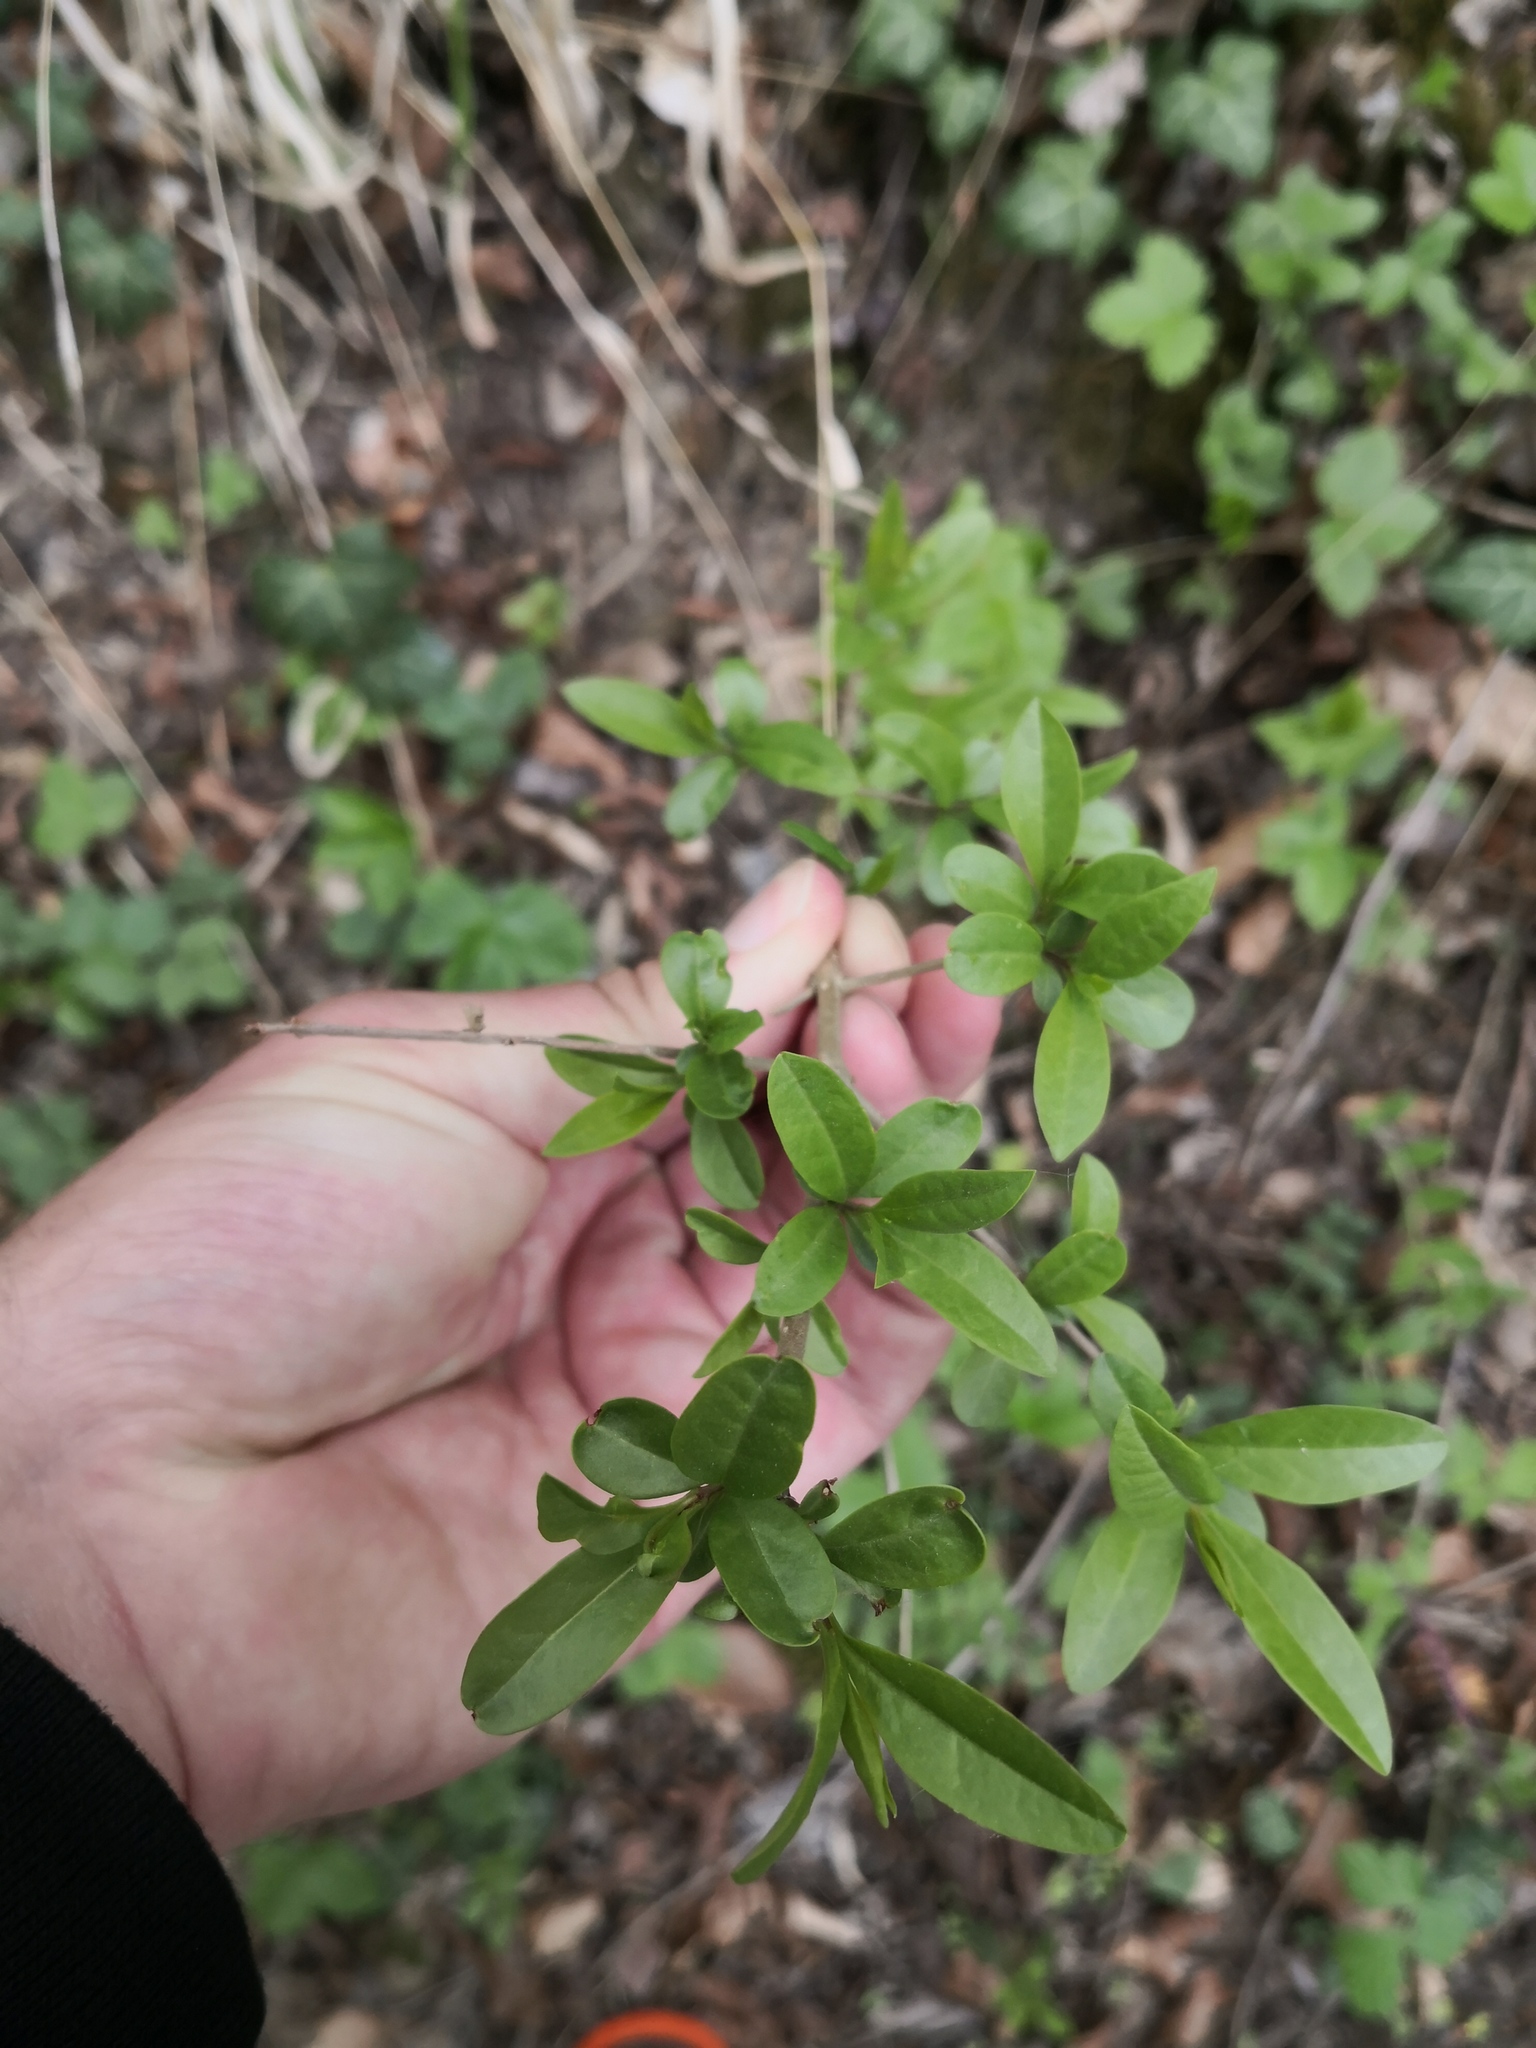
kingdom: Plantae
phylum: Tracheophyta
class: Magnoliopsida
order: Lamiales
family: Oleaceae
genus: Ligustrum
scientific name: Ligustrum vulgare
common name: Wild privet
